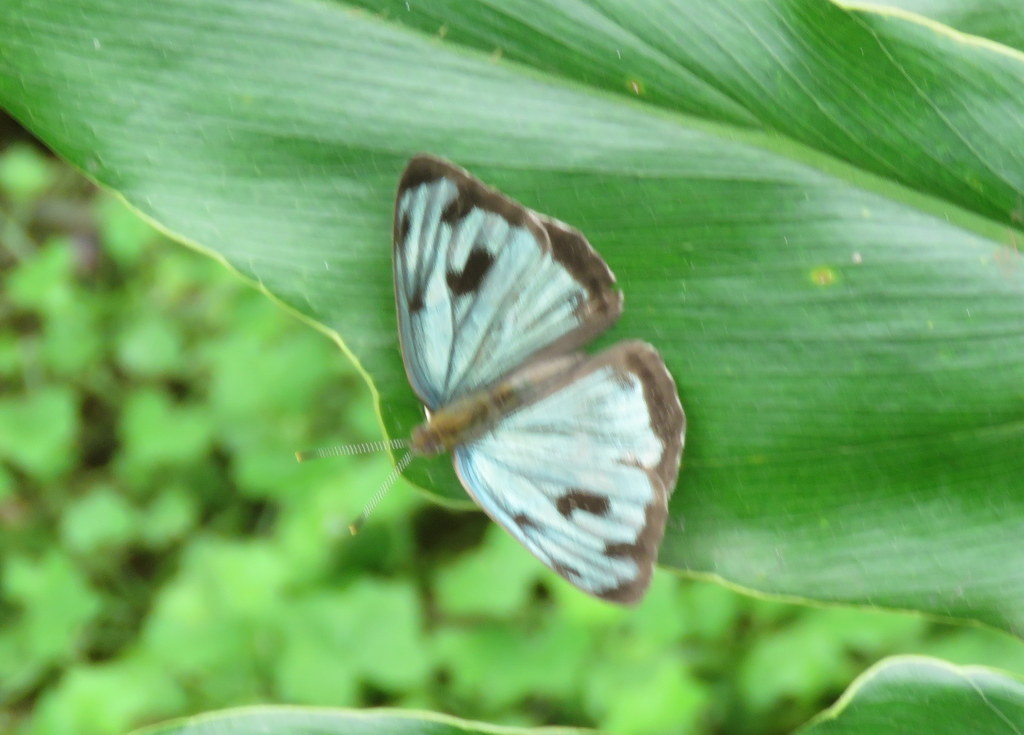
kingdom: Animalia
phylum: Arthropoda
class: Insecta
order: Lepidoptera
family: Nymphalidae
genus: Dynamine
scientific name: Dynamine mylitta
